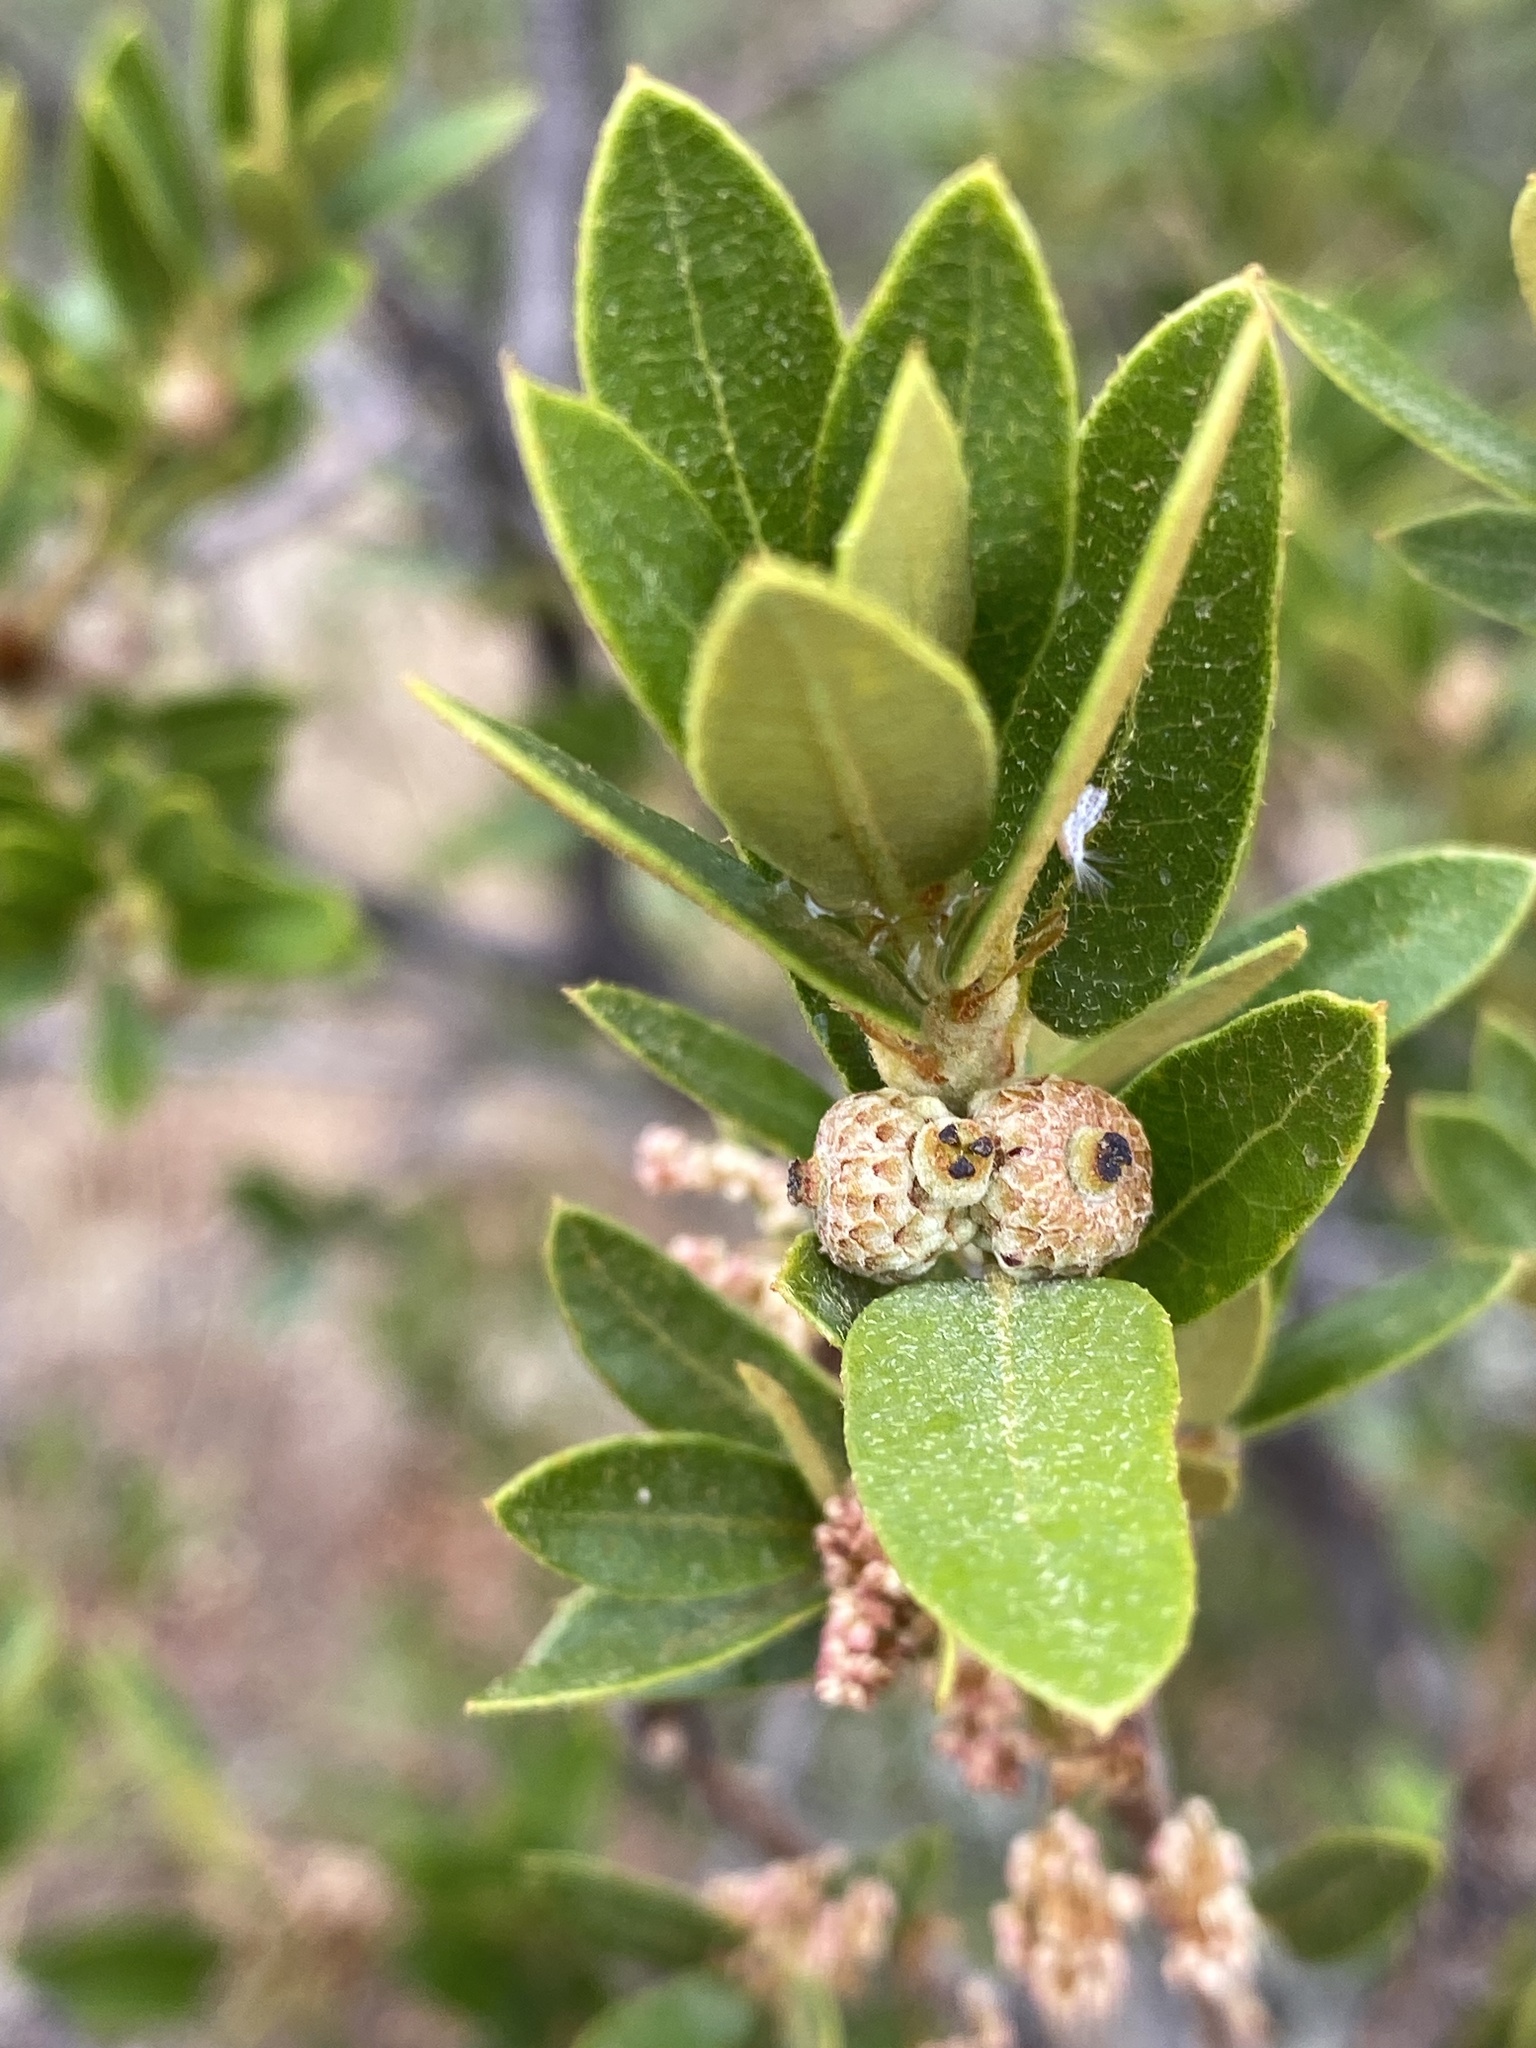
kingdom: Plantae
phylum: Tracheophyta
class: Magnoliopsida
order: Fagales
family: Fagaceae
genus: Quercus
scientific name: Quercus toumeyi
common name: Toumey oak
